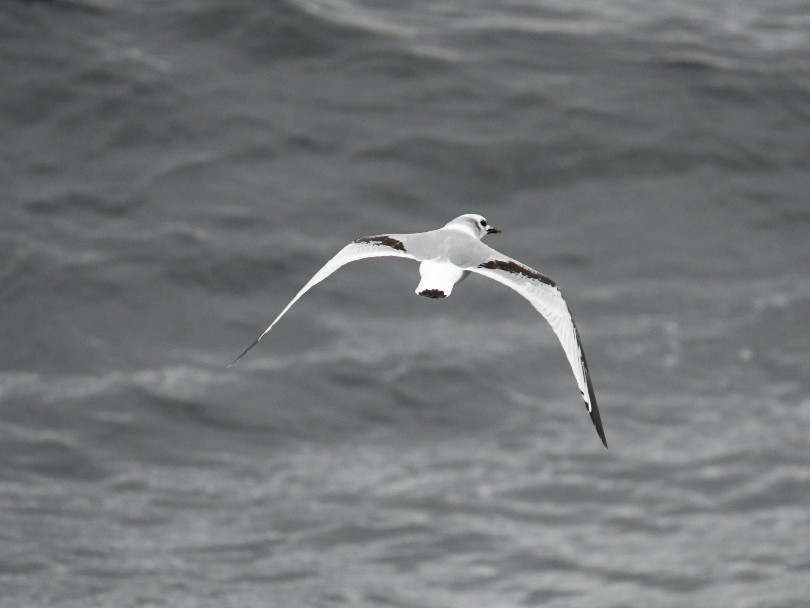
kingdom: Animalia
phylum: Chordata
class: Aves
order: Charadriiformes
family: Laridae
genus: Rissa
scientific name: Rissa tridactyla
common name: Black-legged kittiwake
